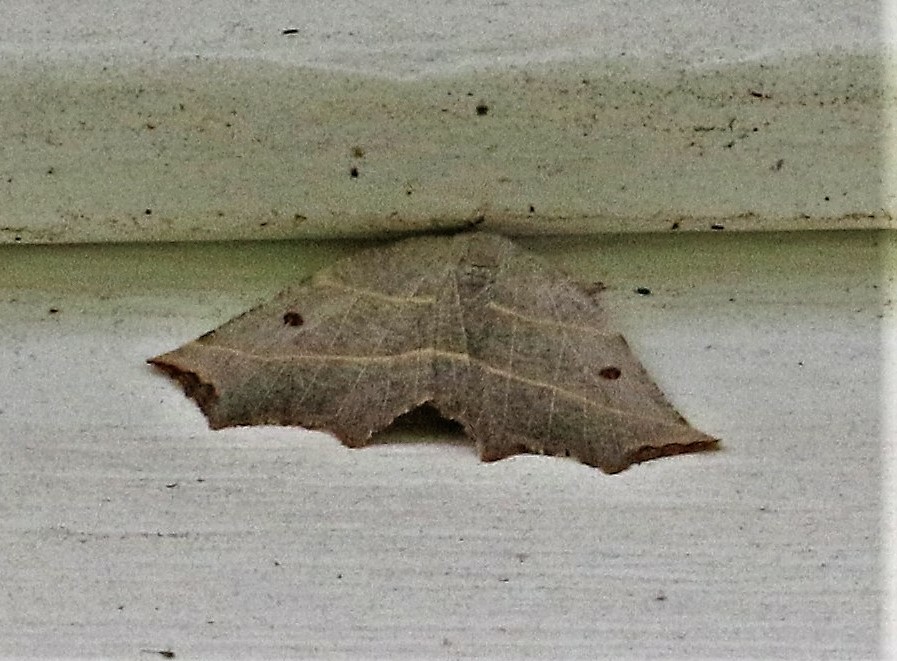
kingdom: Animalia
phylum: Arthropoda
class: Insecta
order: Lepidoptera
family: Geometridae
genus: Metanema
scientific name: Metanema inatomaria
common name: Pale metanema
